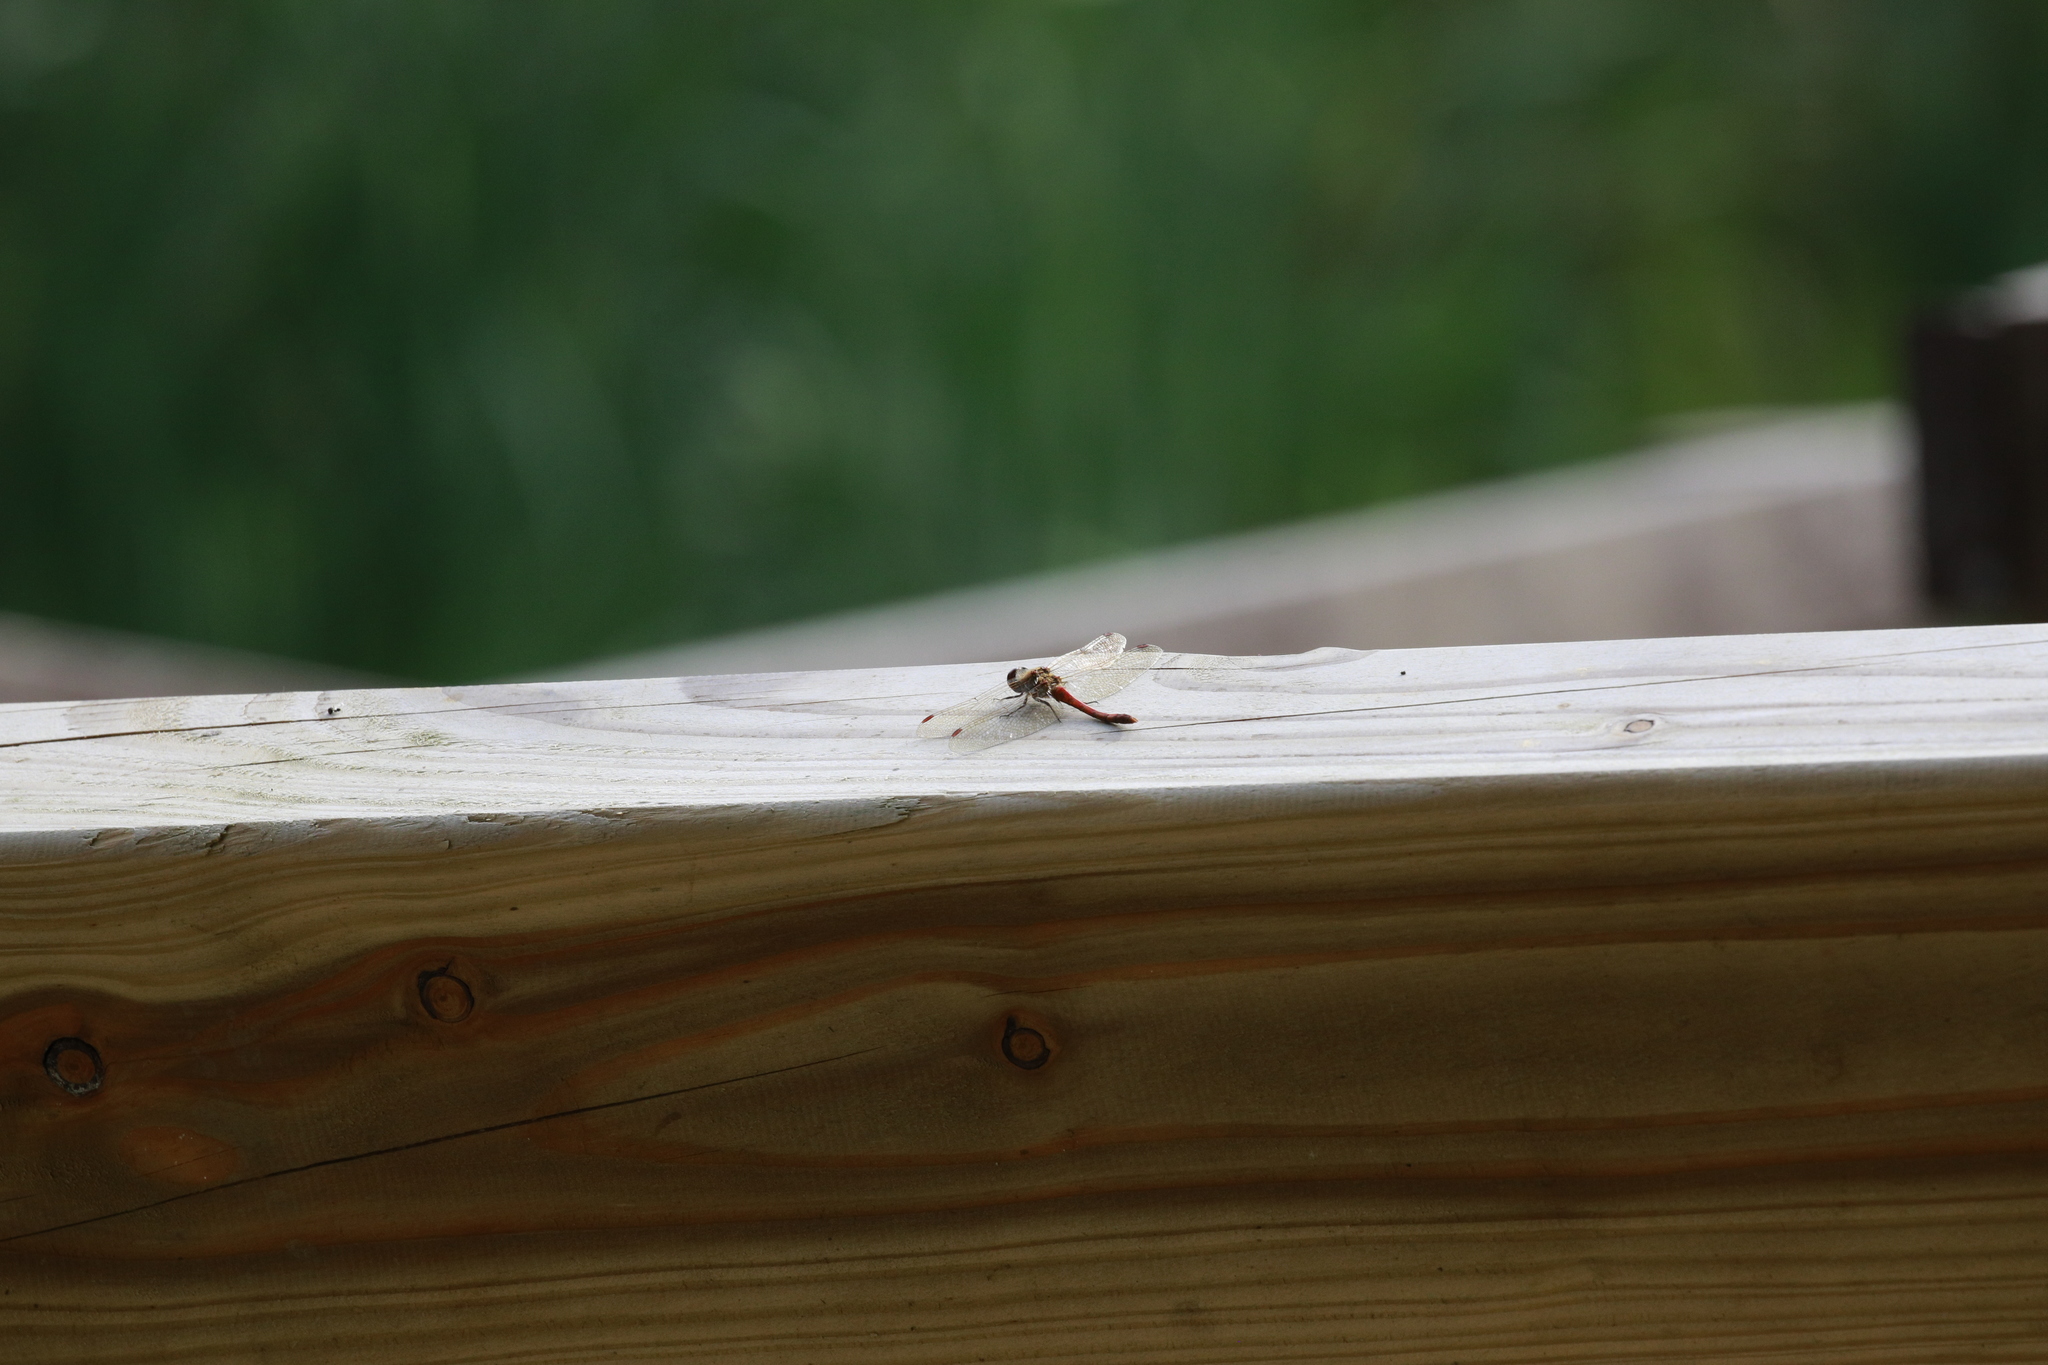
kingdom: Animalia
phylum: Arthropoda
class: Insecta
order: Odonata
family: Libellulidae
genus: Sympetrum
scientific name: Sympetrum striolatum
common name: Common darter
